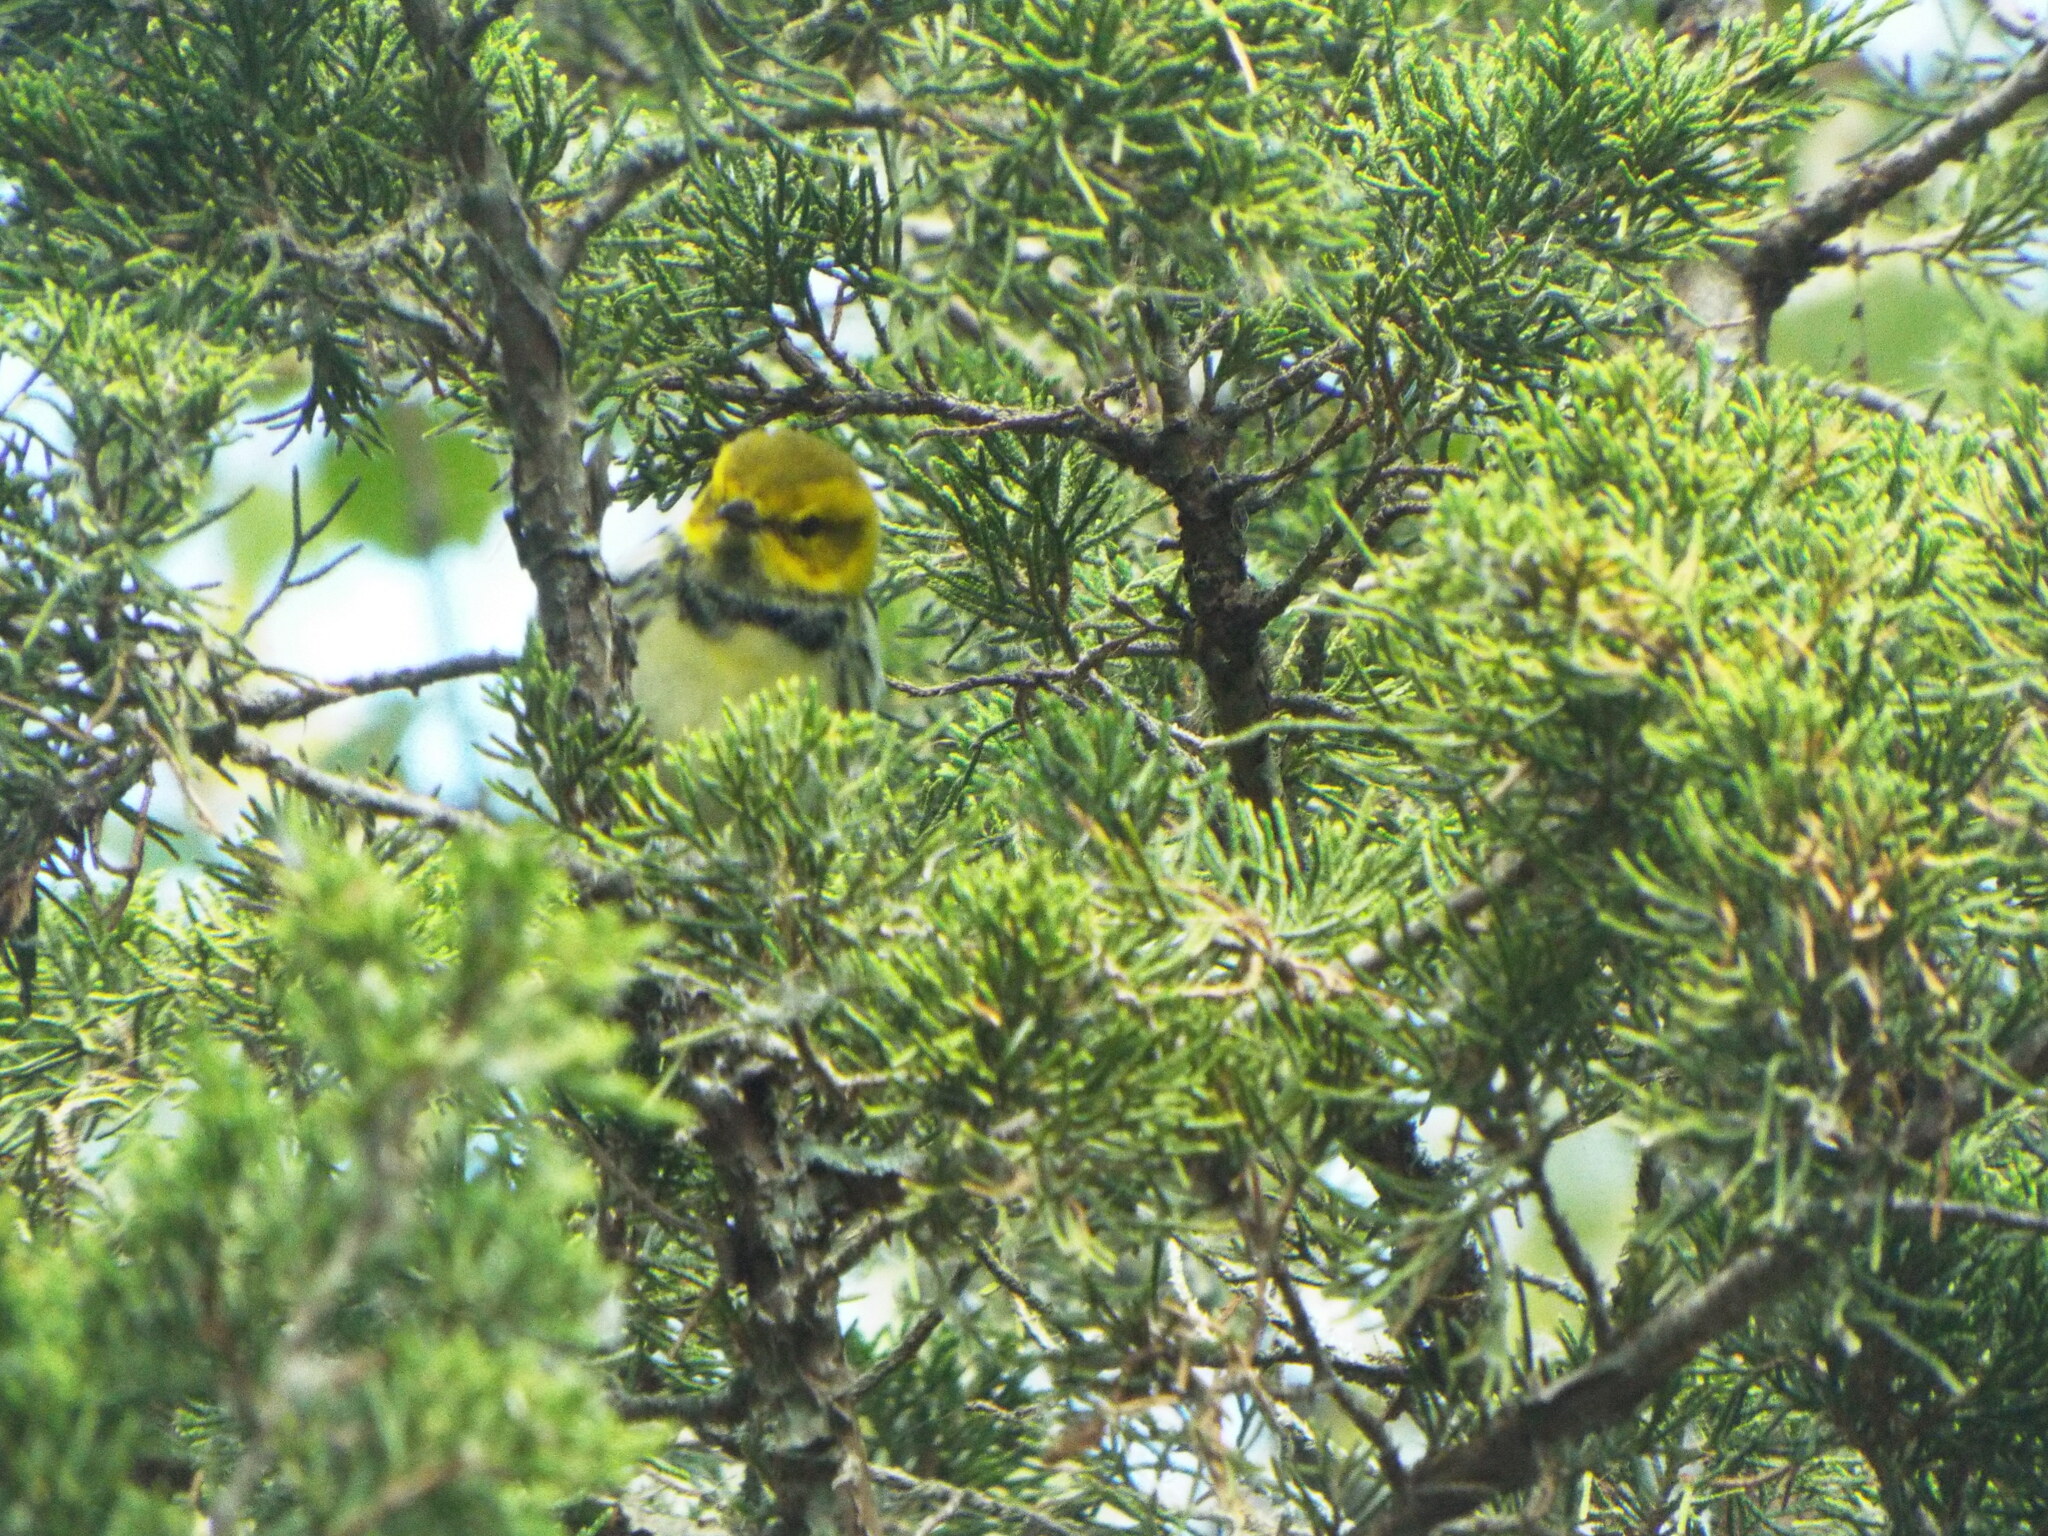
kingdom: Animalia
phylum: Chordata
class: Aves
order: Passeriformes
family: Parulidae
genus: Setophaga
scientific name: Setophaga virens
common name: Black-throated green warbler
